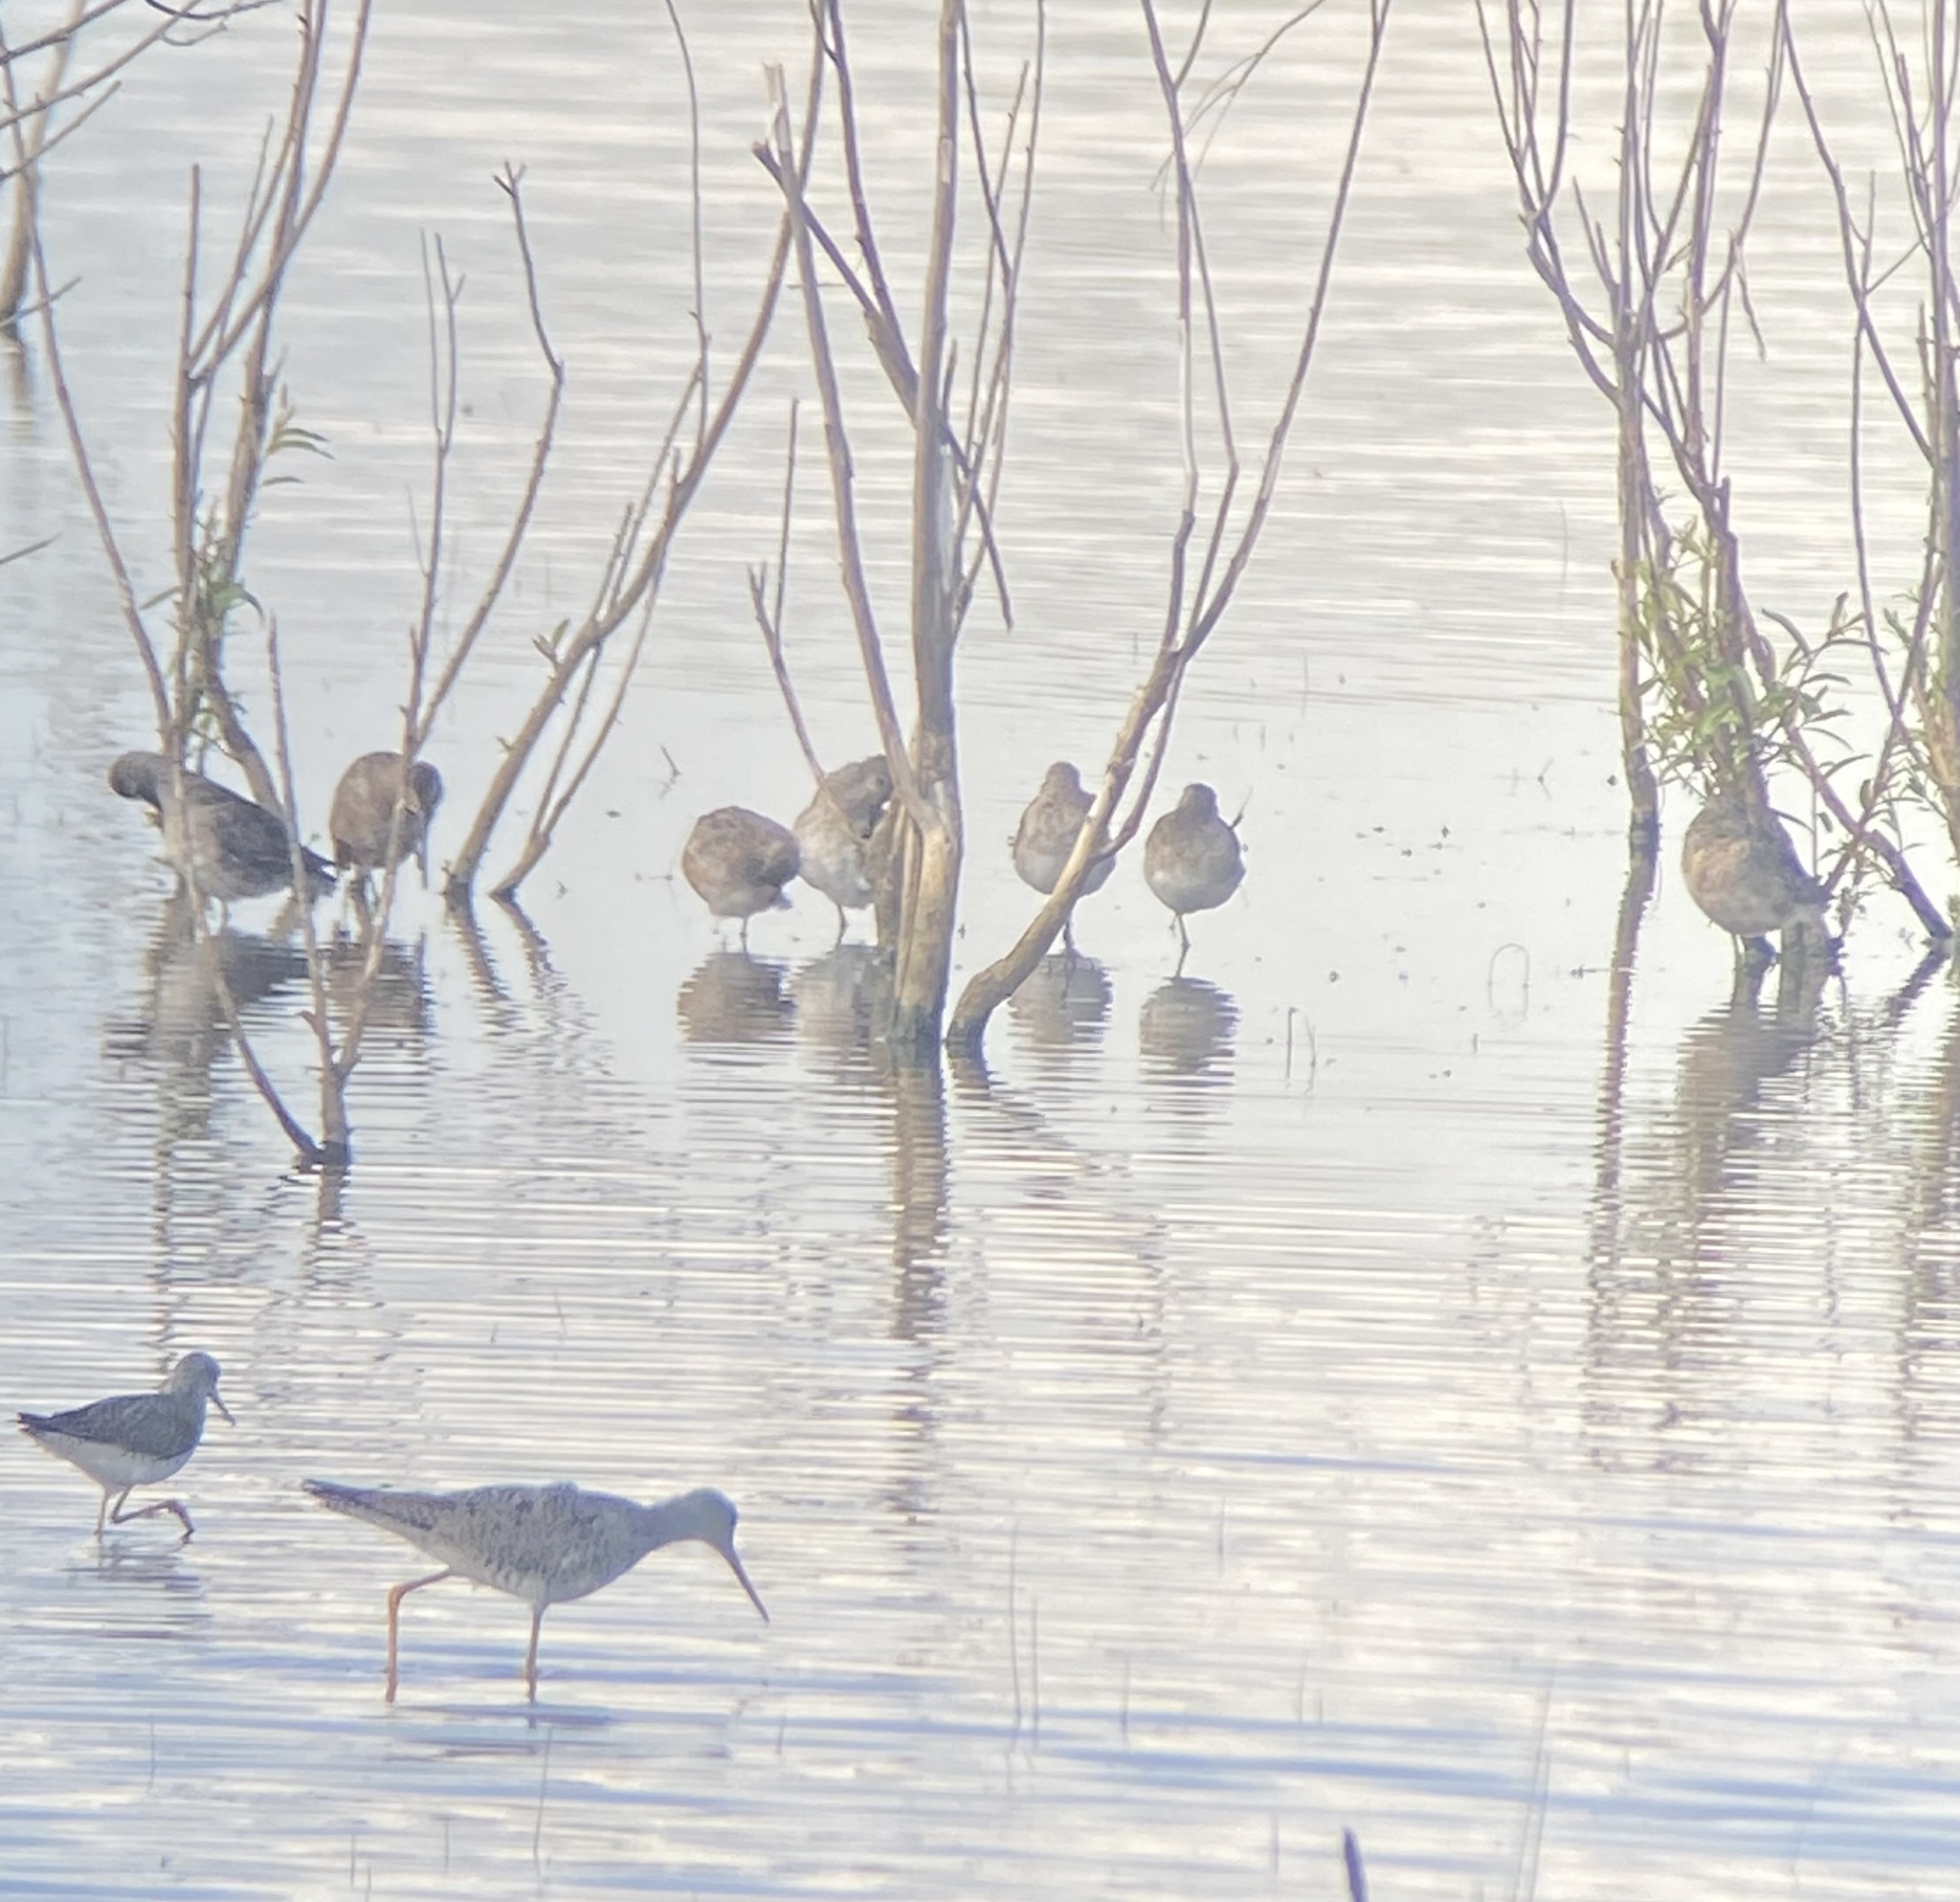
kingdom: Animalia
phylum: Chordata
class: Aves
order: Charadriiformes
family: Scolopacidae
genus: Tringa
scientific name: Tringa melanoleuca
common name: Greater yellowlegs
